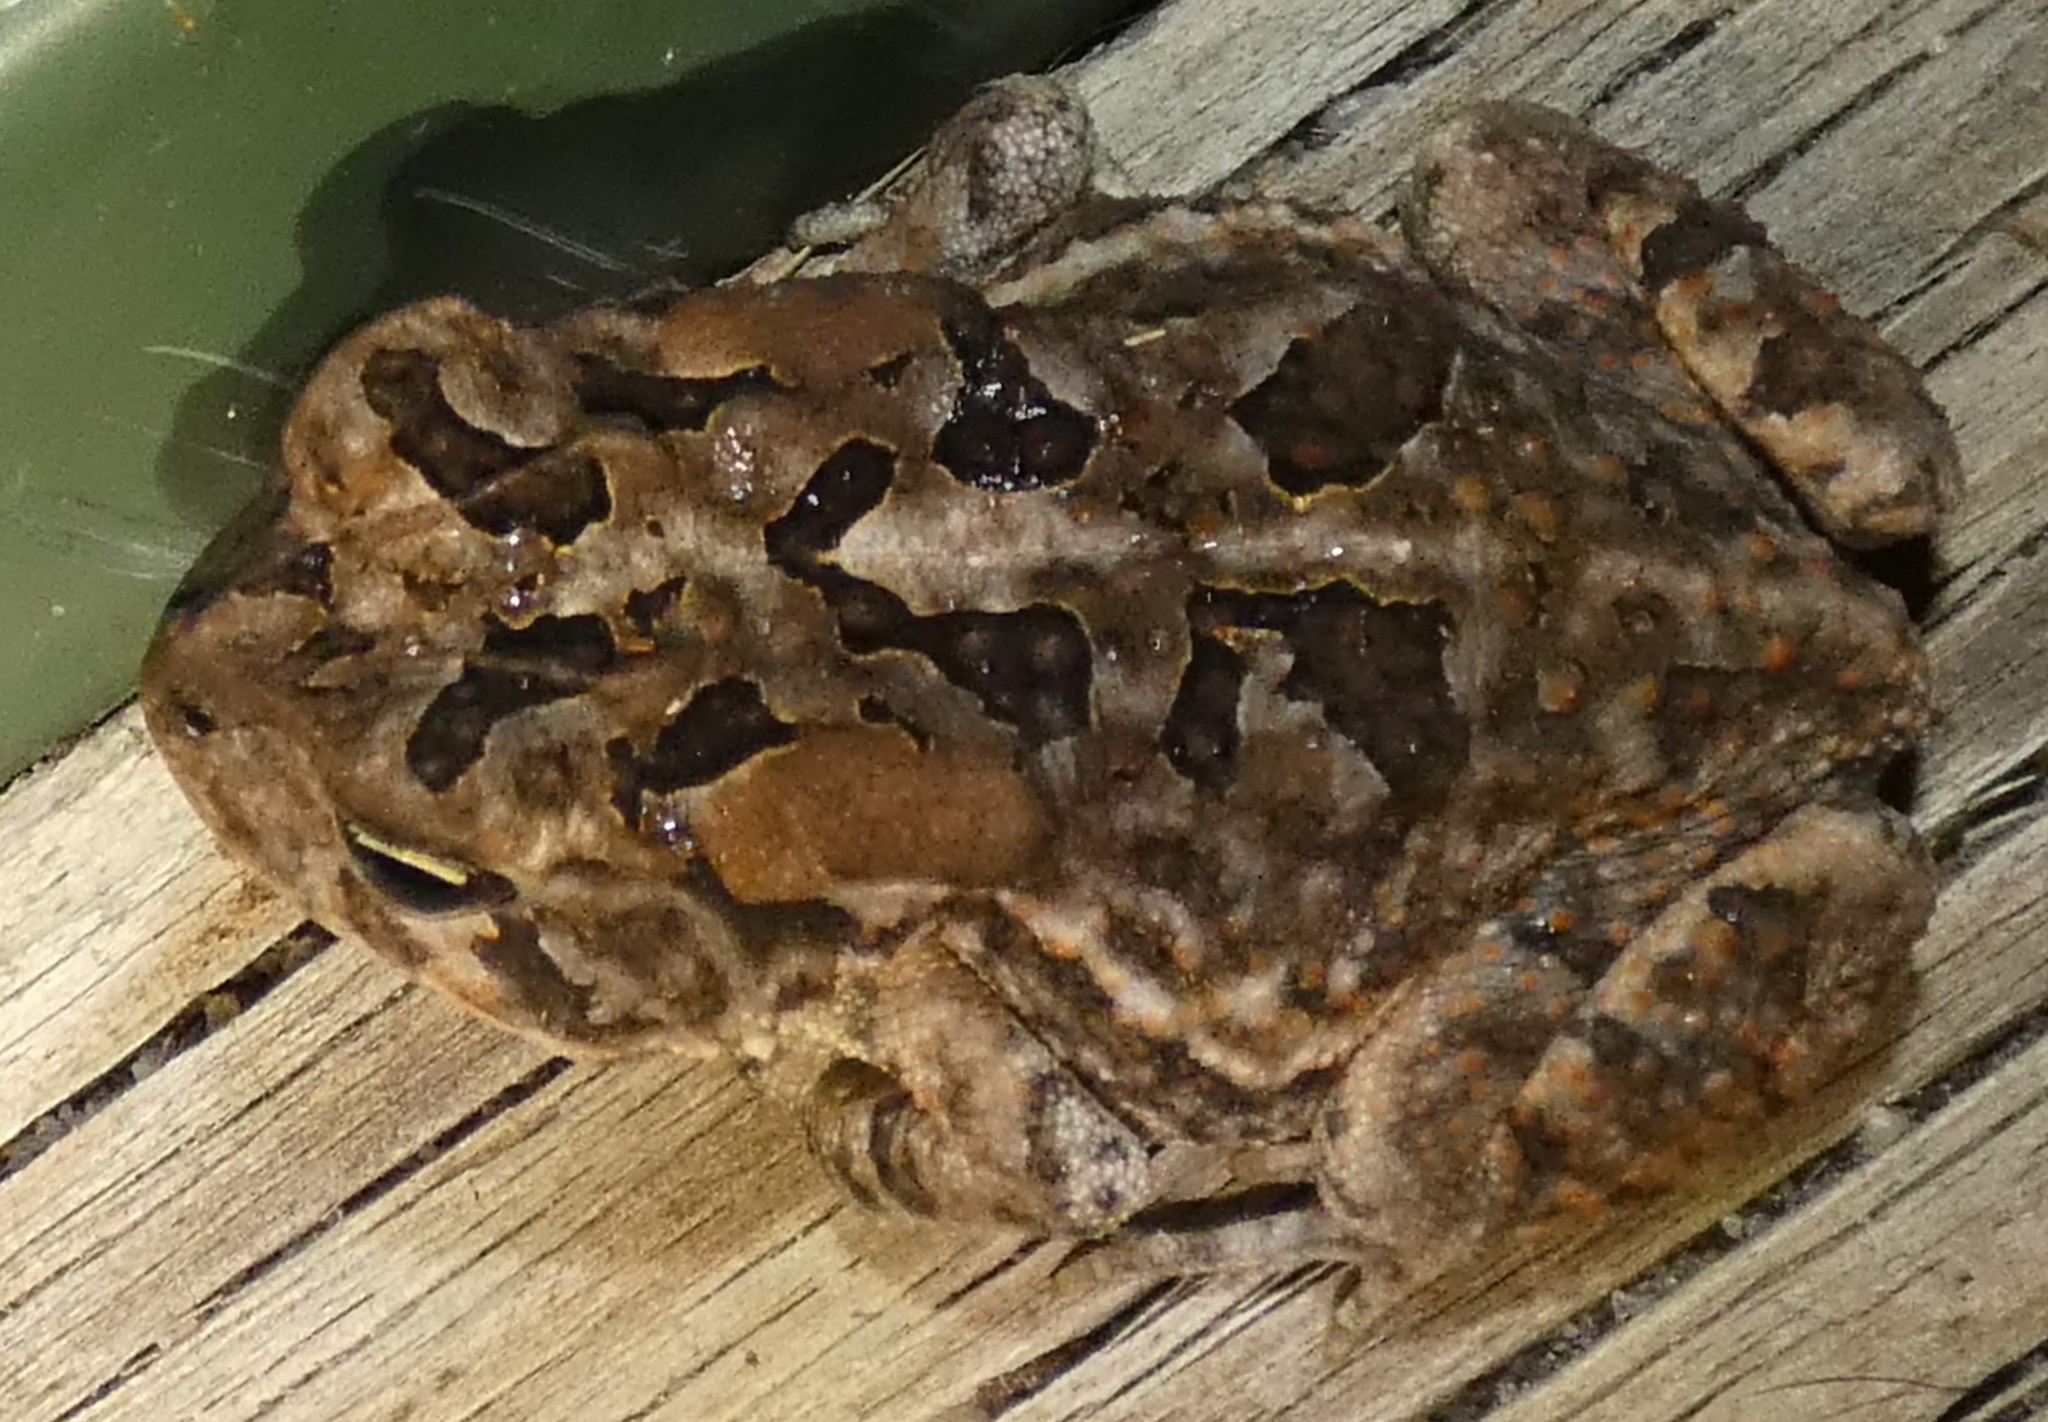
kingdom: Animalia
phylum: Chordata
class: Amphibia
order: Anura
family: Bufonidae
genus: Anaxyrus
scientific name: Anaxyrus terrestris
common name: Southern toad
